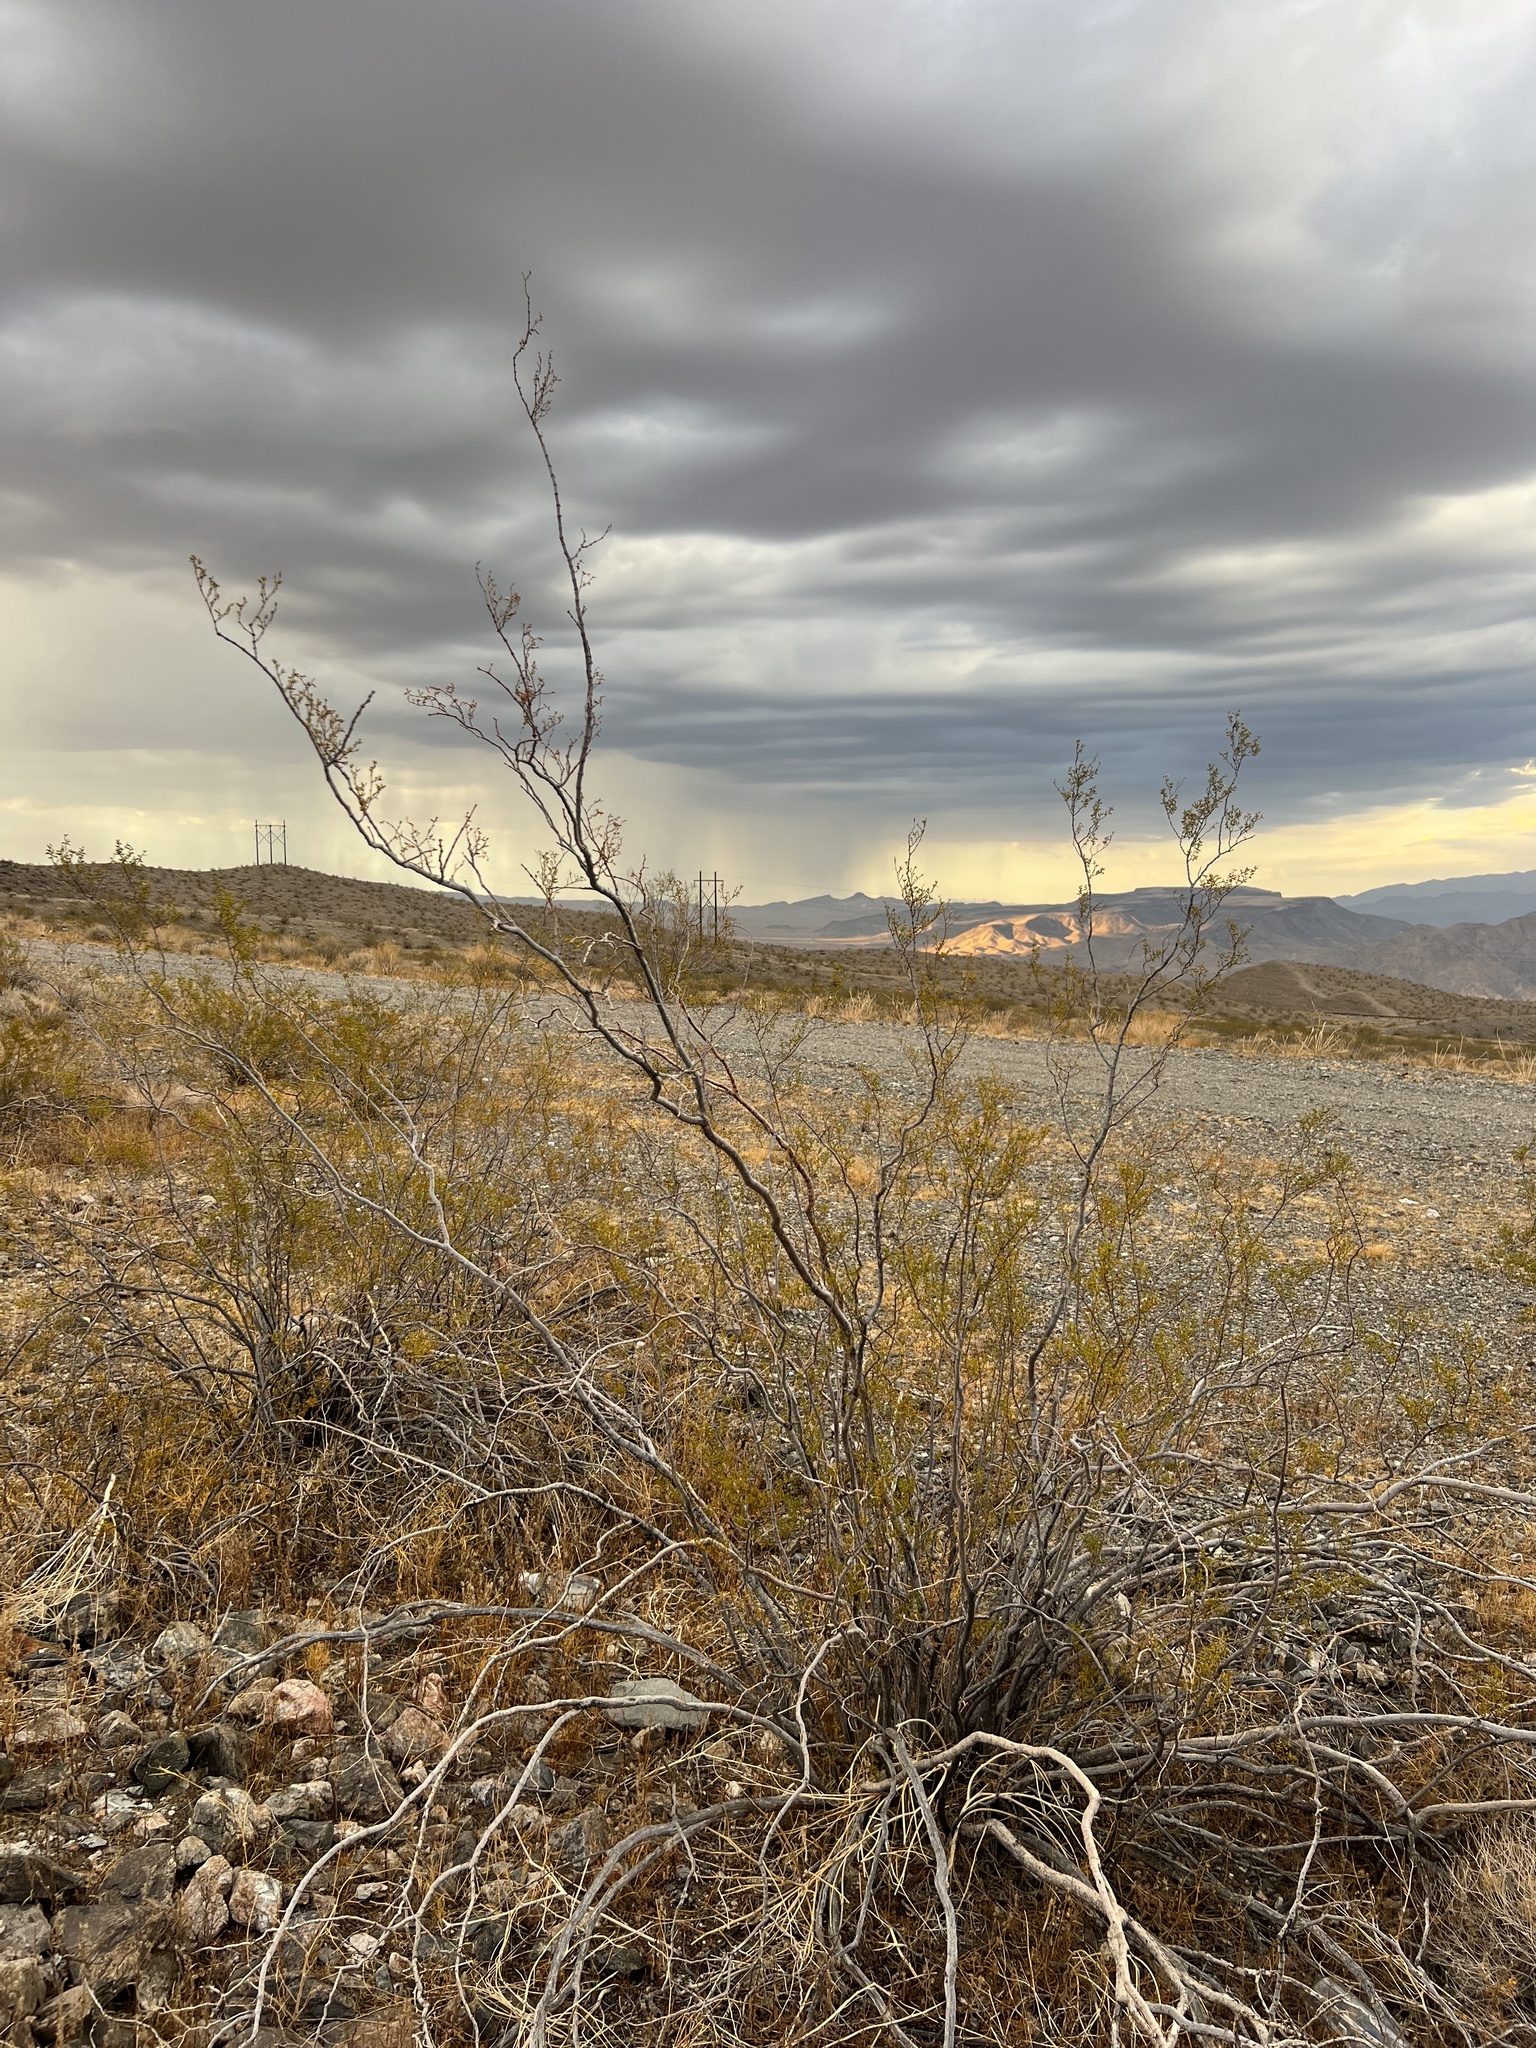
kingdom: Plantae
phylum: Tracheophyta
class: Magnoliopsida
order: Zygophyllales
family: Zygophyllaceae
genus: Larrea
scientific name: Larrea tridentata
